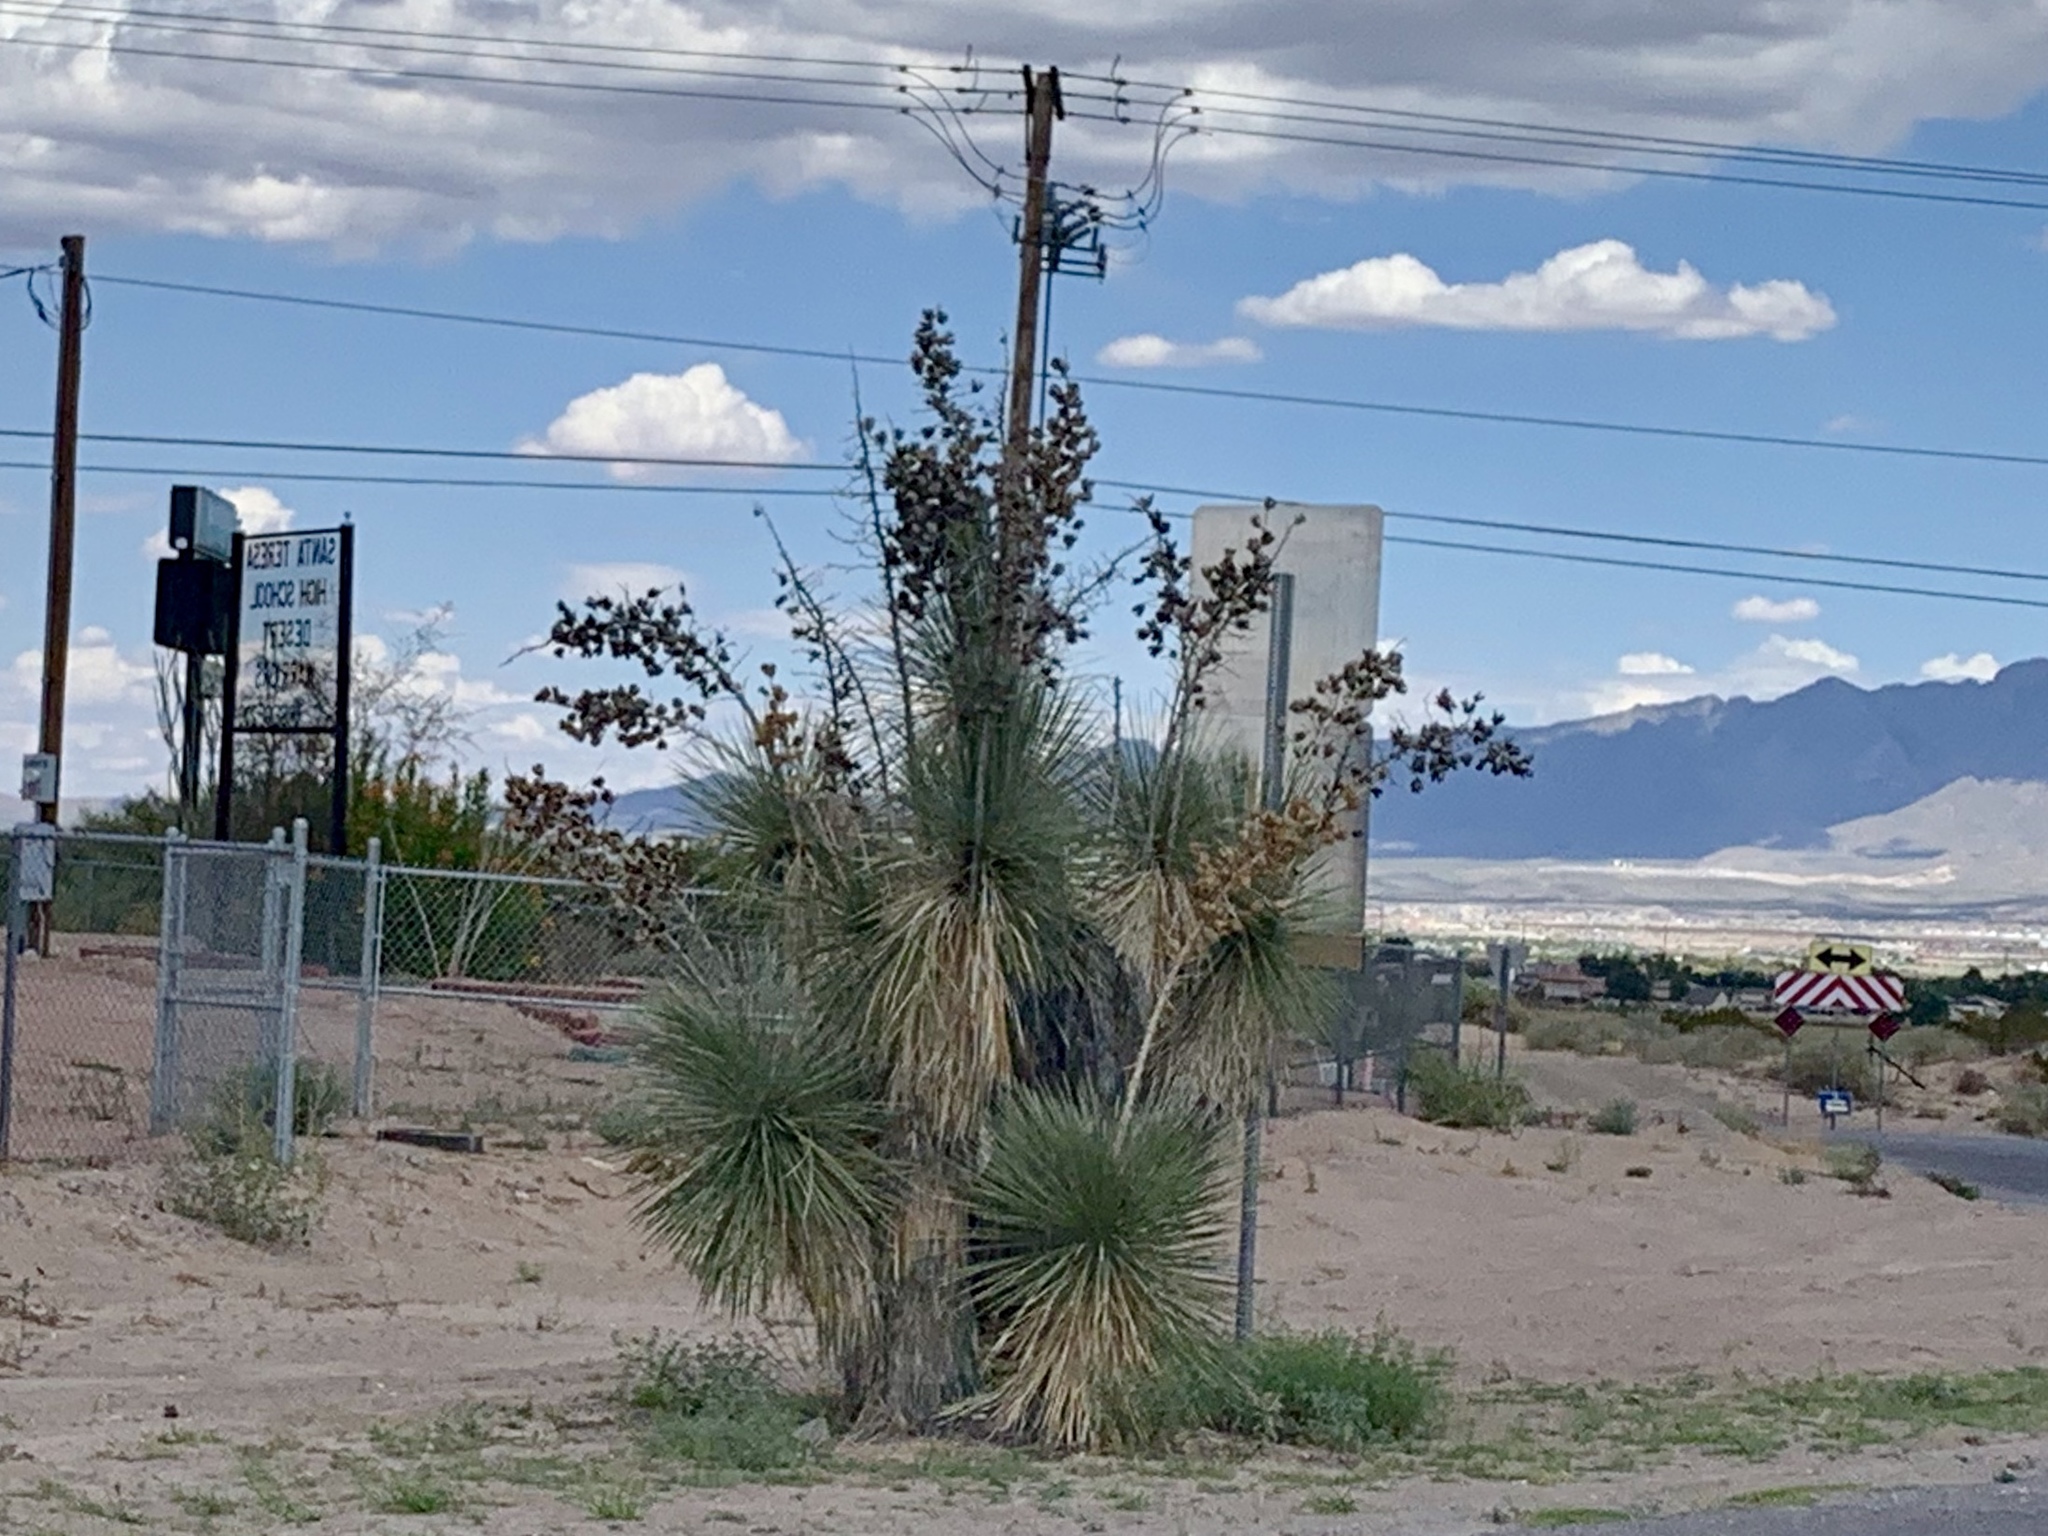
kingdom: Plantae
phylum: Tracheophyta
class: Liliopsida
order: Asparagales
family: Asparagaceae
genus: Yucca
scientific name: Yucca elata
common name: Palmella
